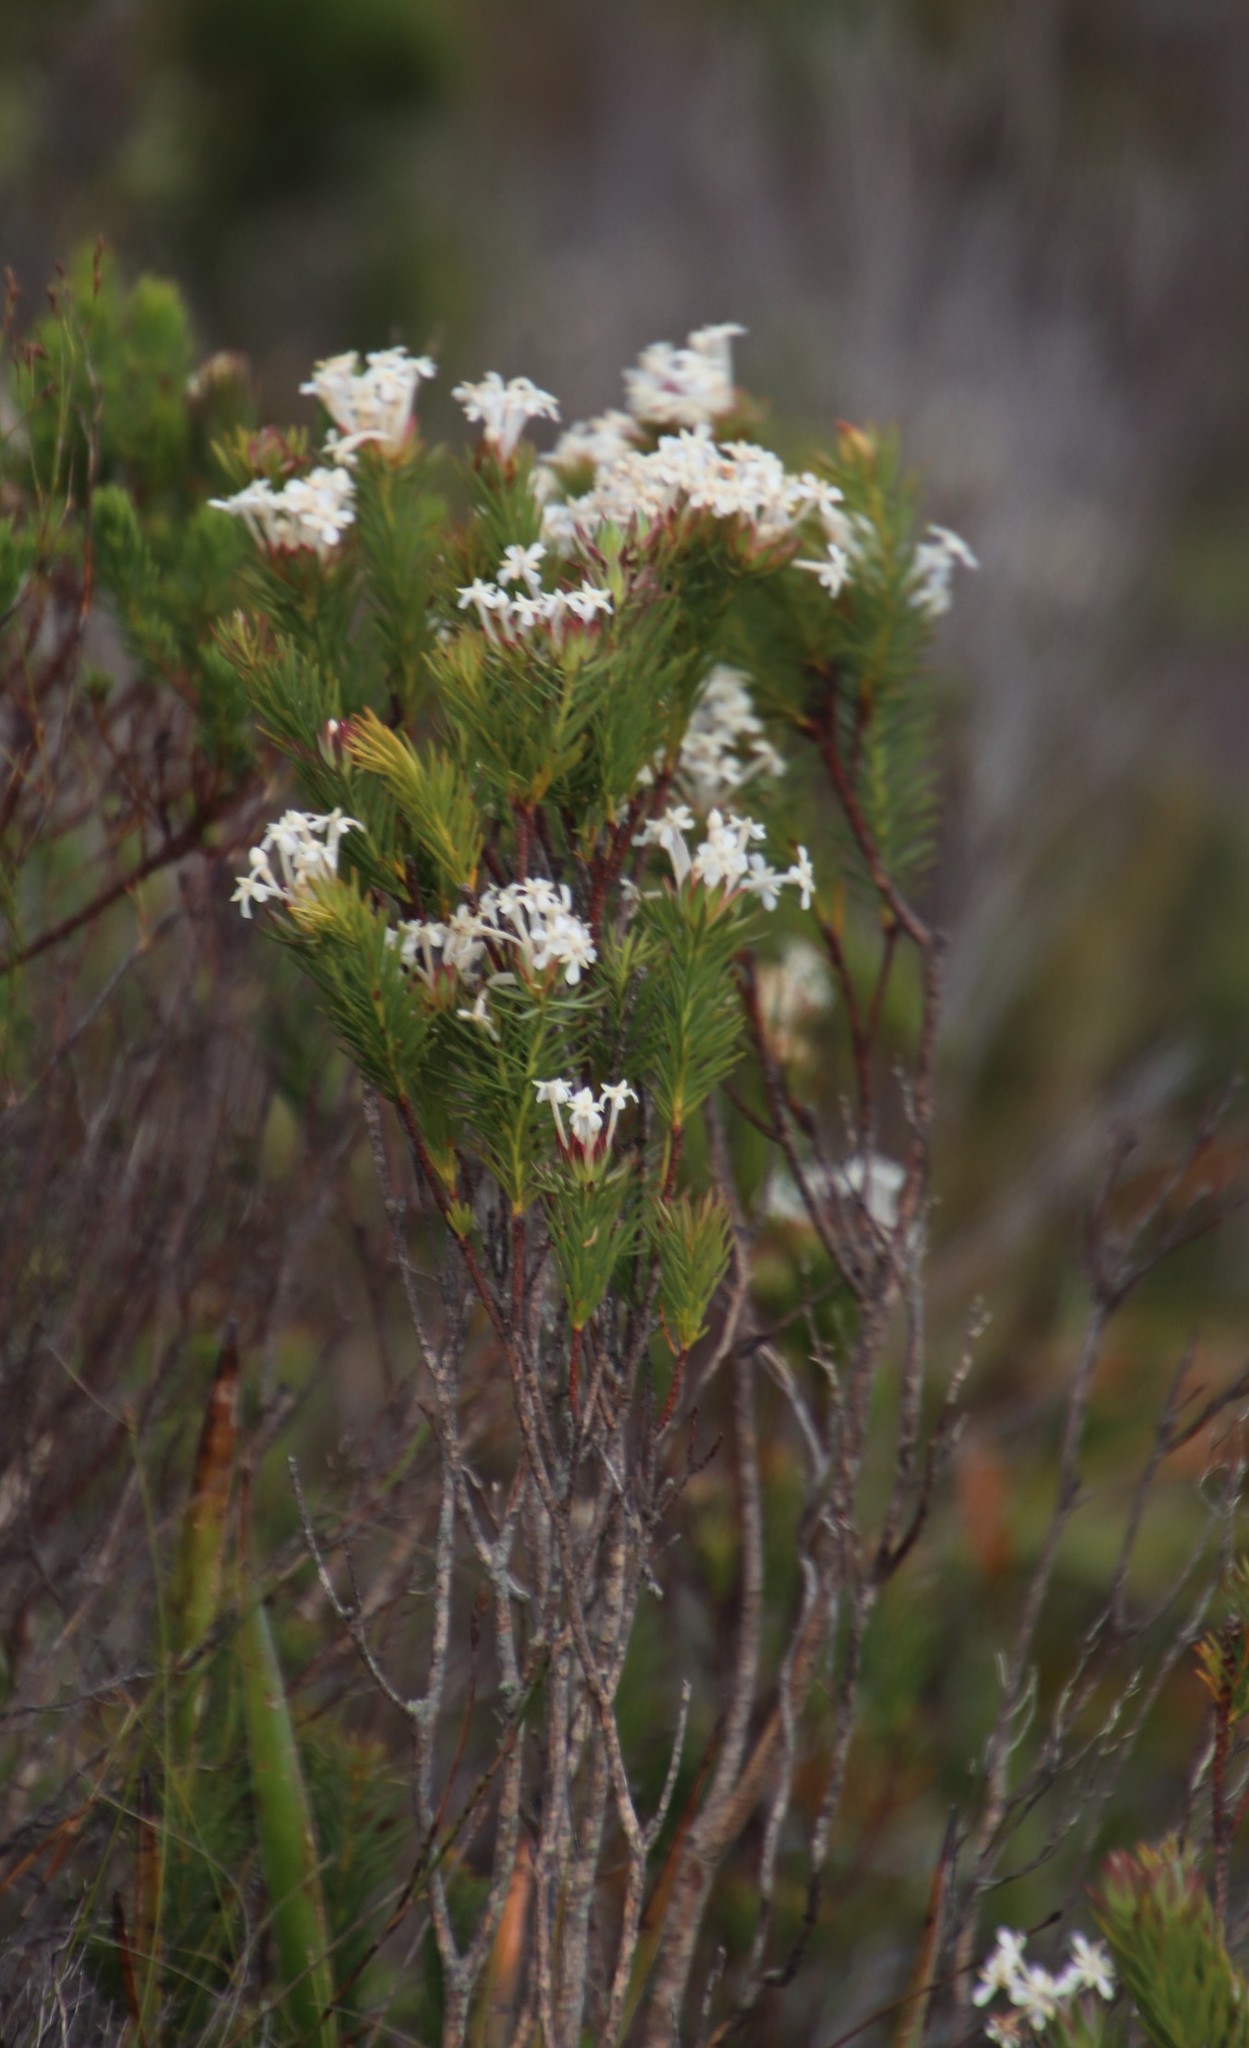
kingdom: Plantae
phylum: Tracheophyta
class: Magnoliopsida
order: Malvales
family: Thymelaeaceae
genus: Gnidia
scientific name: Gnidia pinifolia
